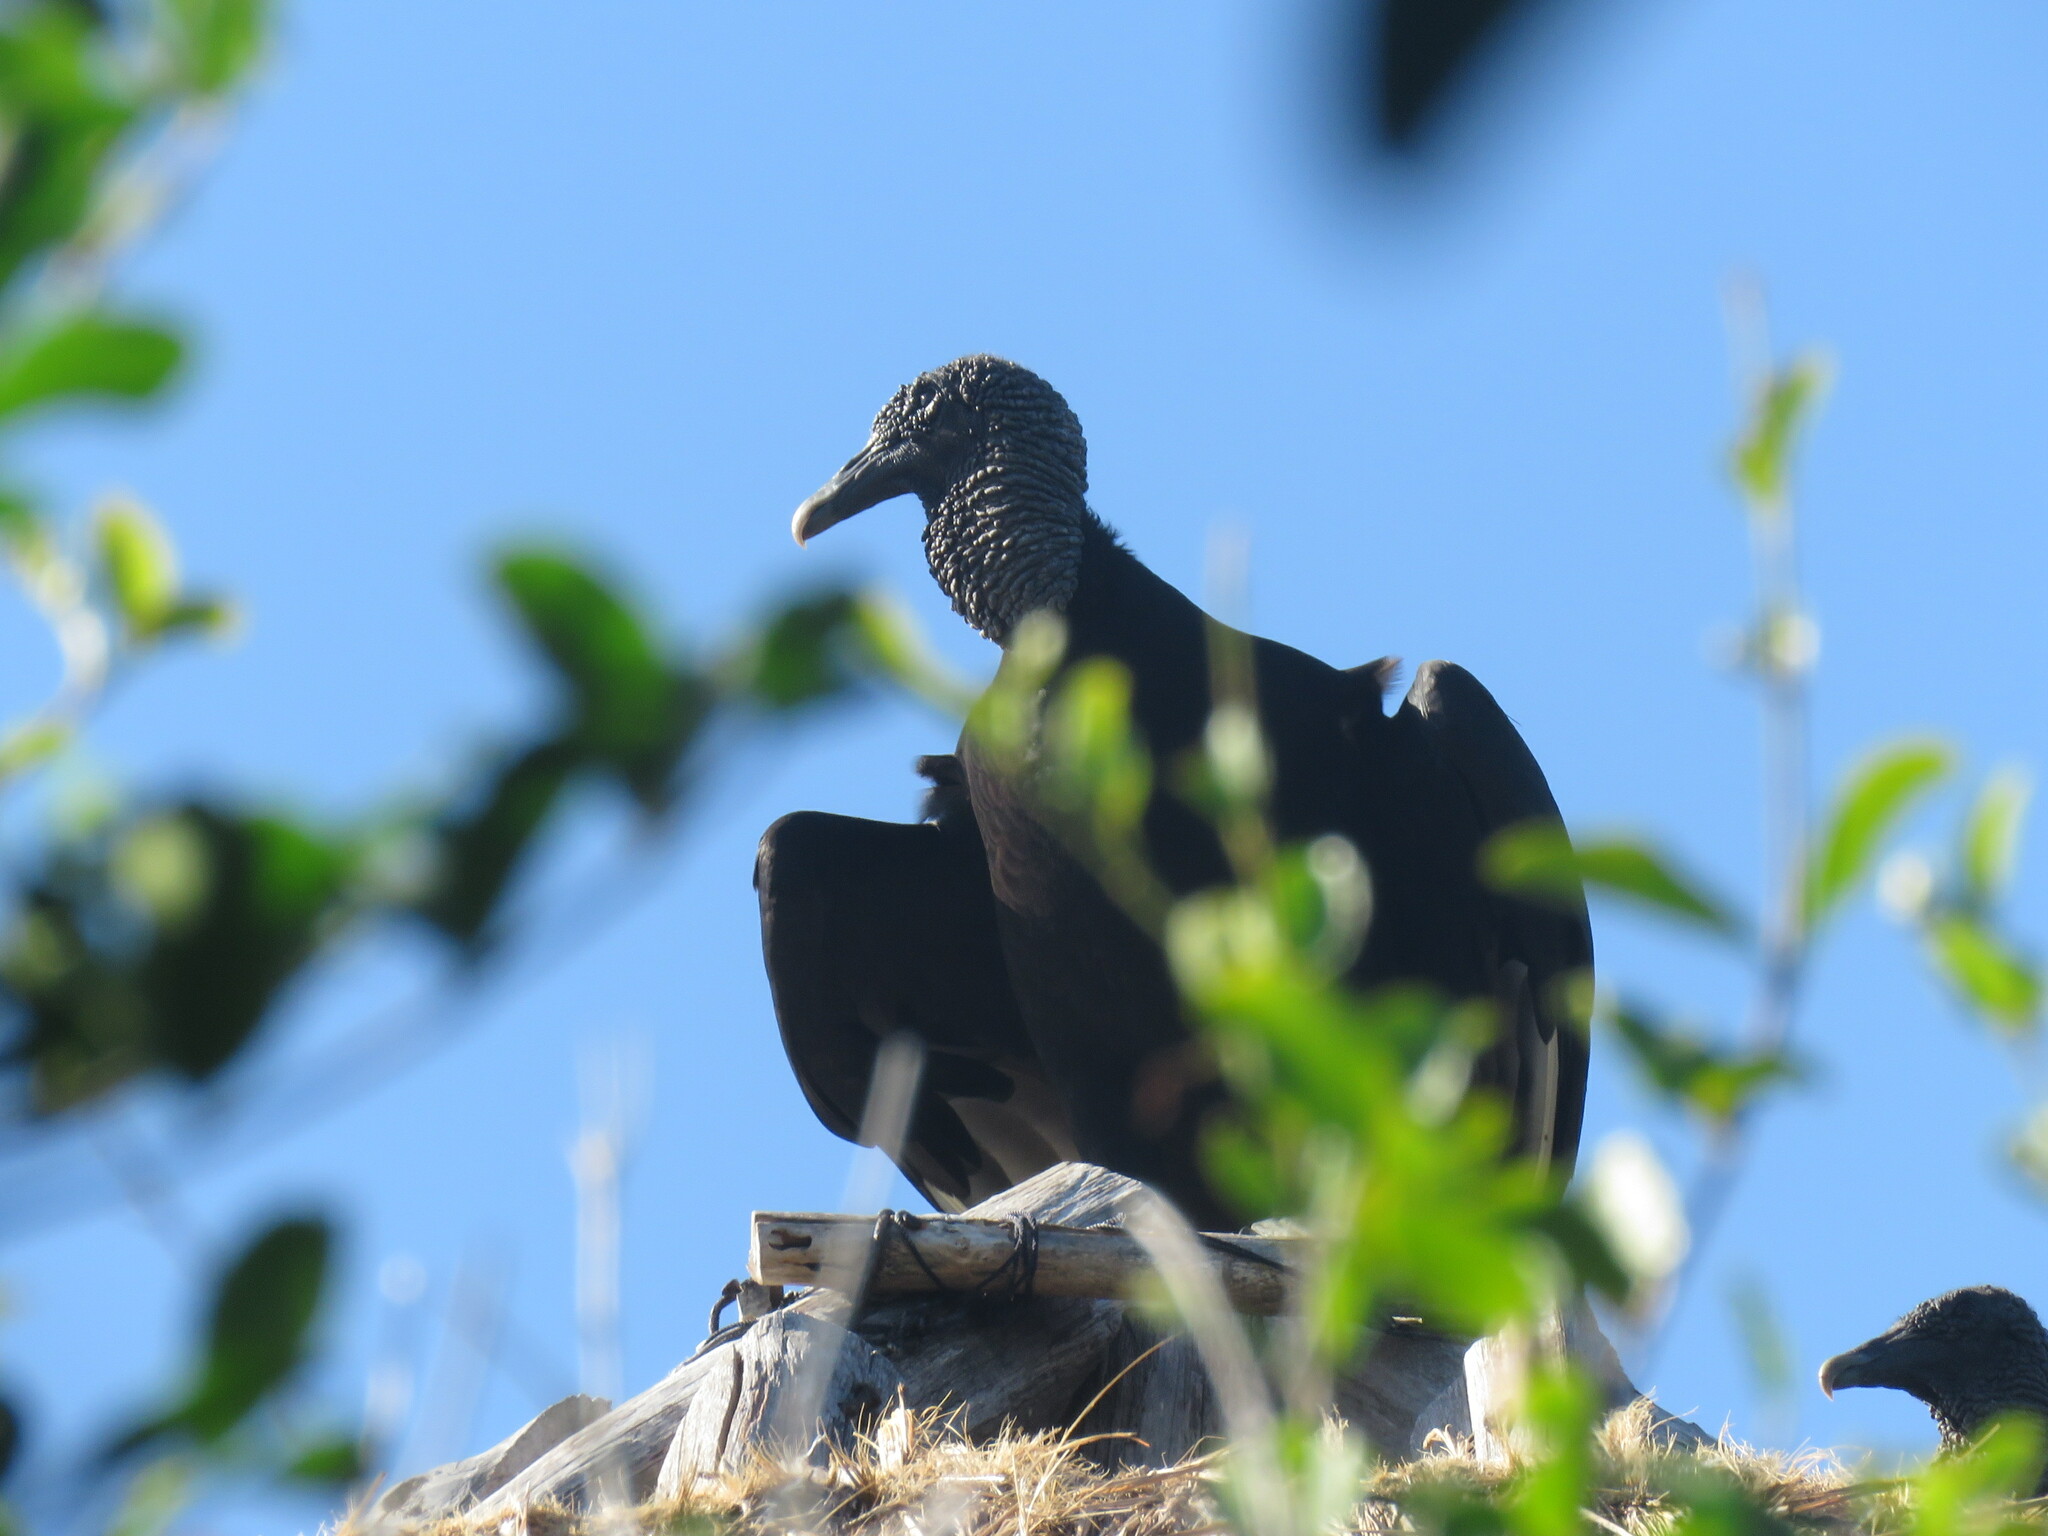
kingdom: Animalia
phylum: Chordata
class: Aves
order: Accipitriformes
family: Cathartidae
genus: Coragyps
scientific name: Coragyps atratus
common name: Black vulture
